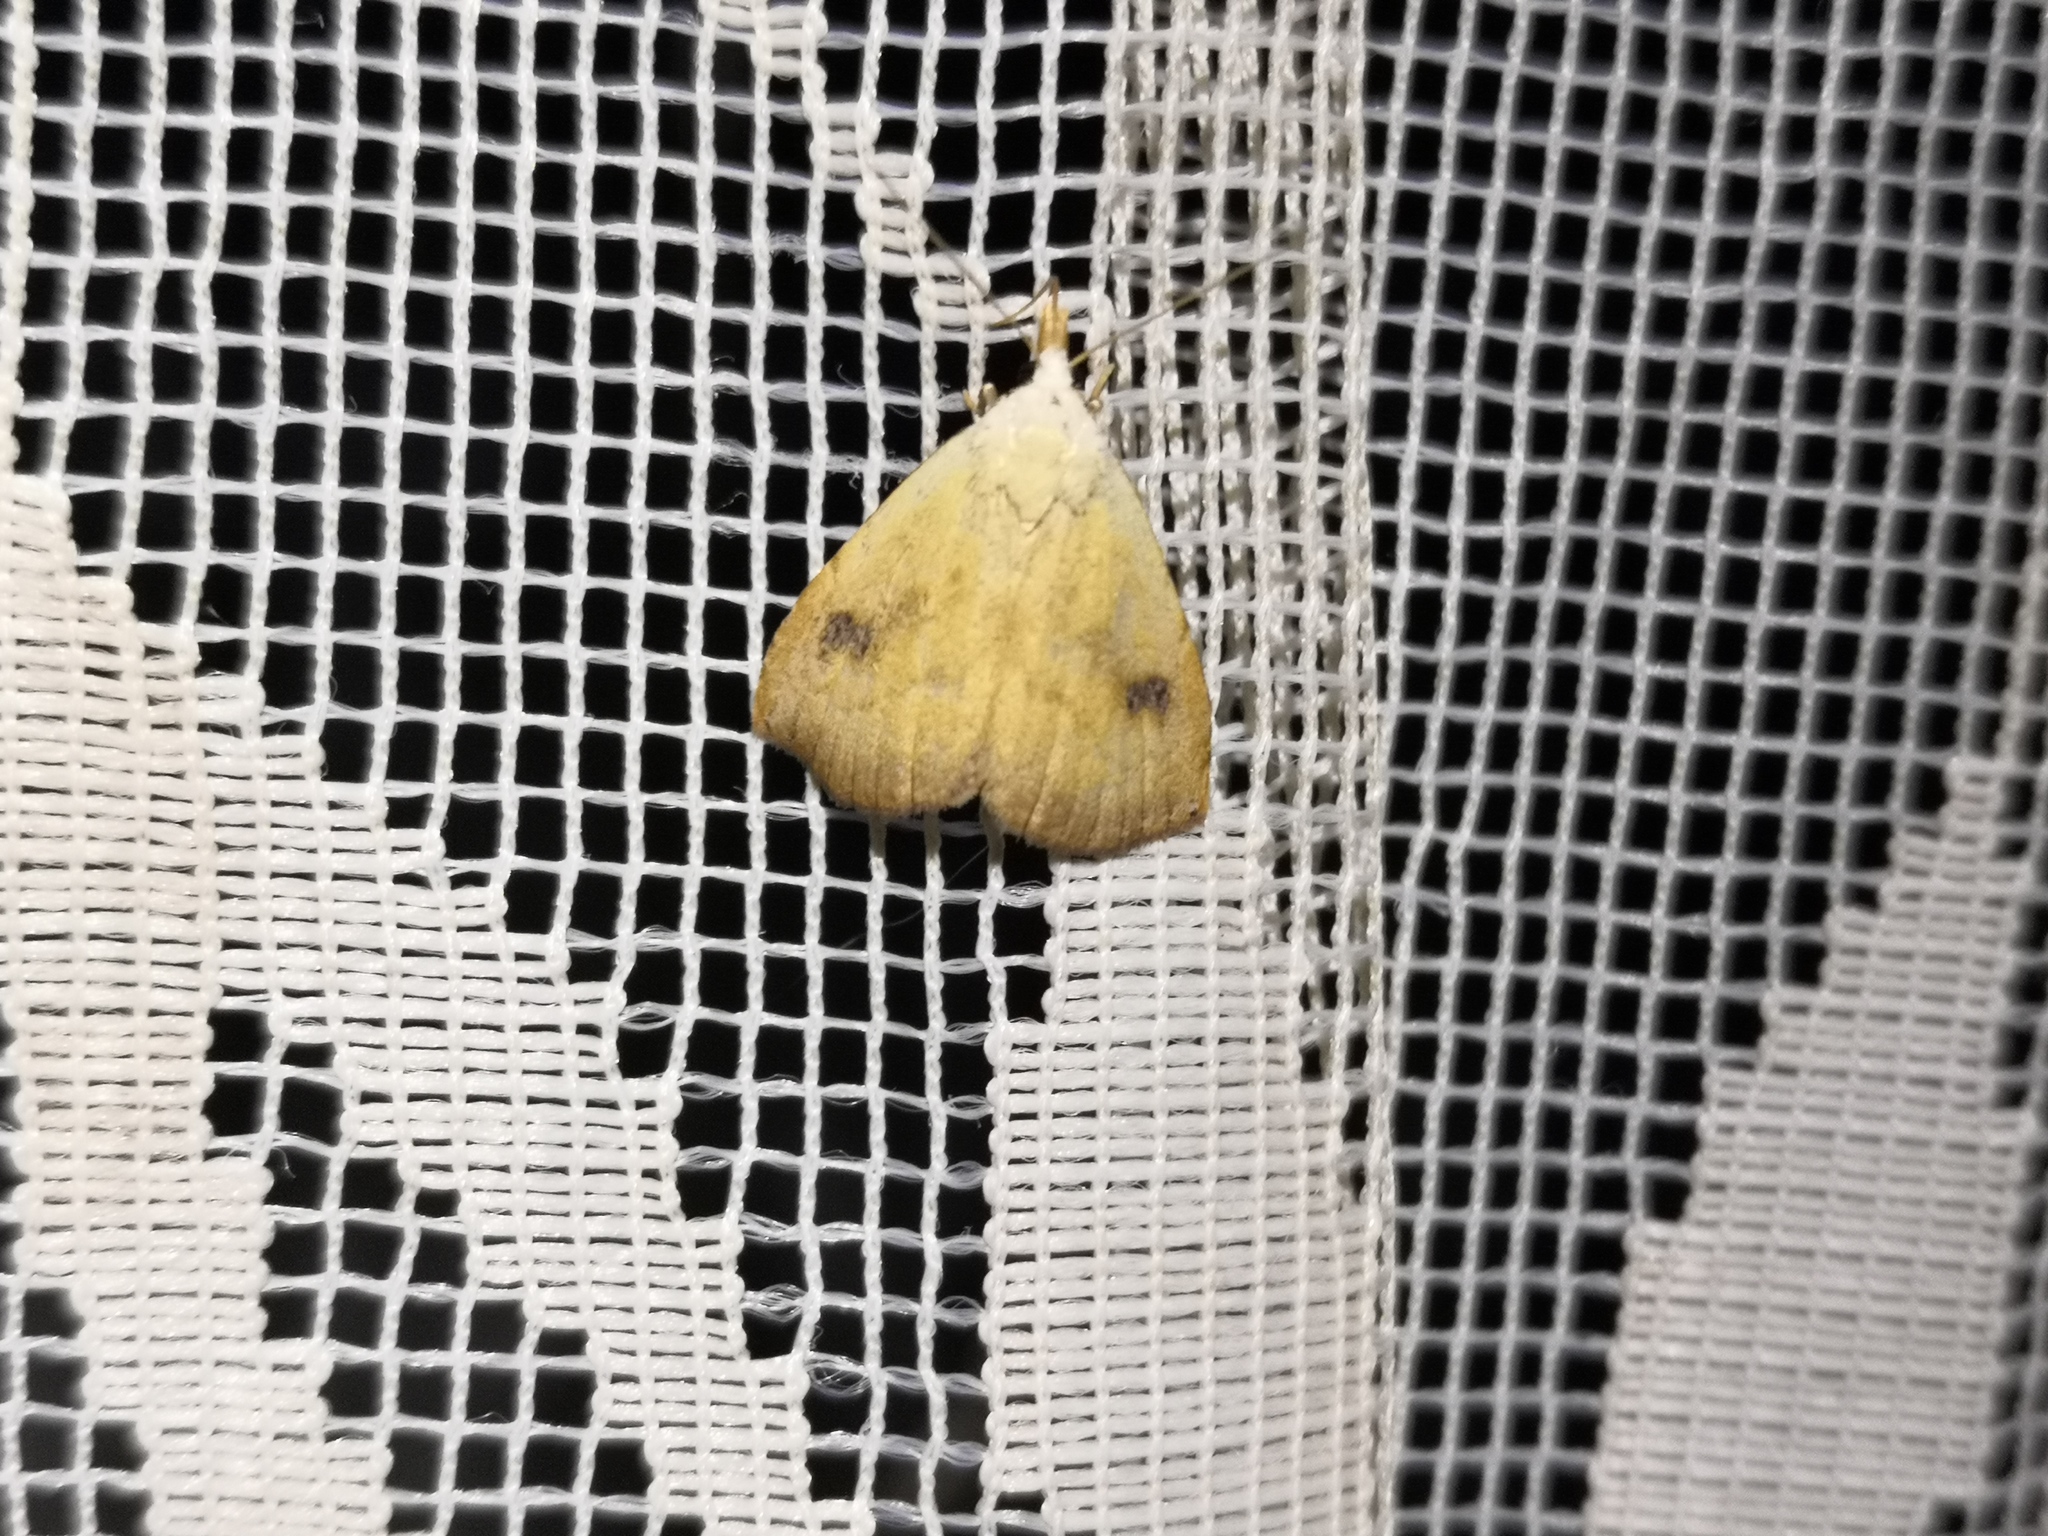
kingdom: Animalia
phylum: Arthropoda
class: Insecta
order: Lepidoptera
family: Erebidae
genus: Rivula
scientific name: Rivula sericealis
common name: Straw dot
